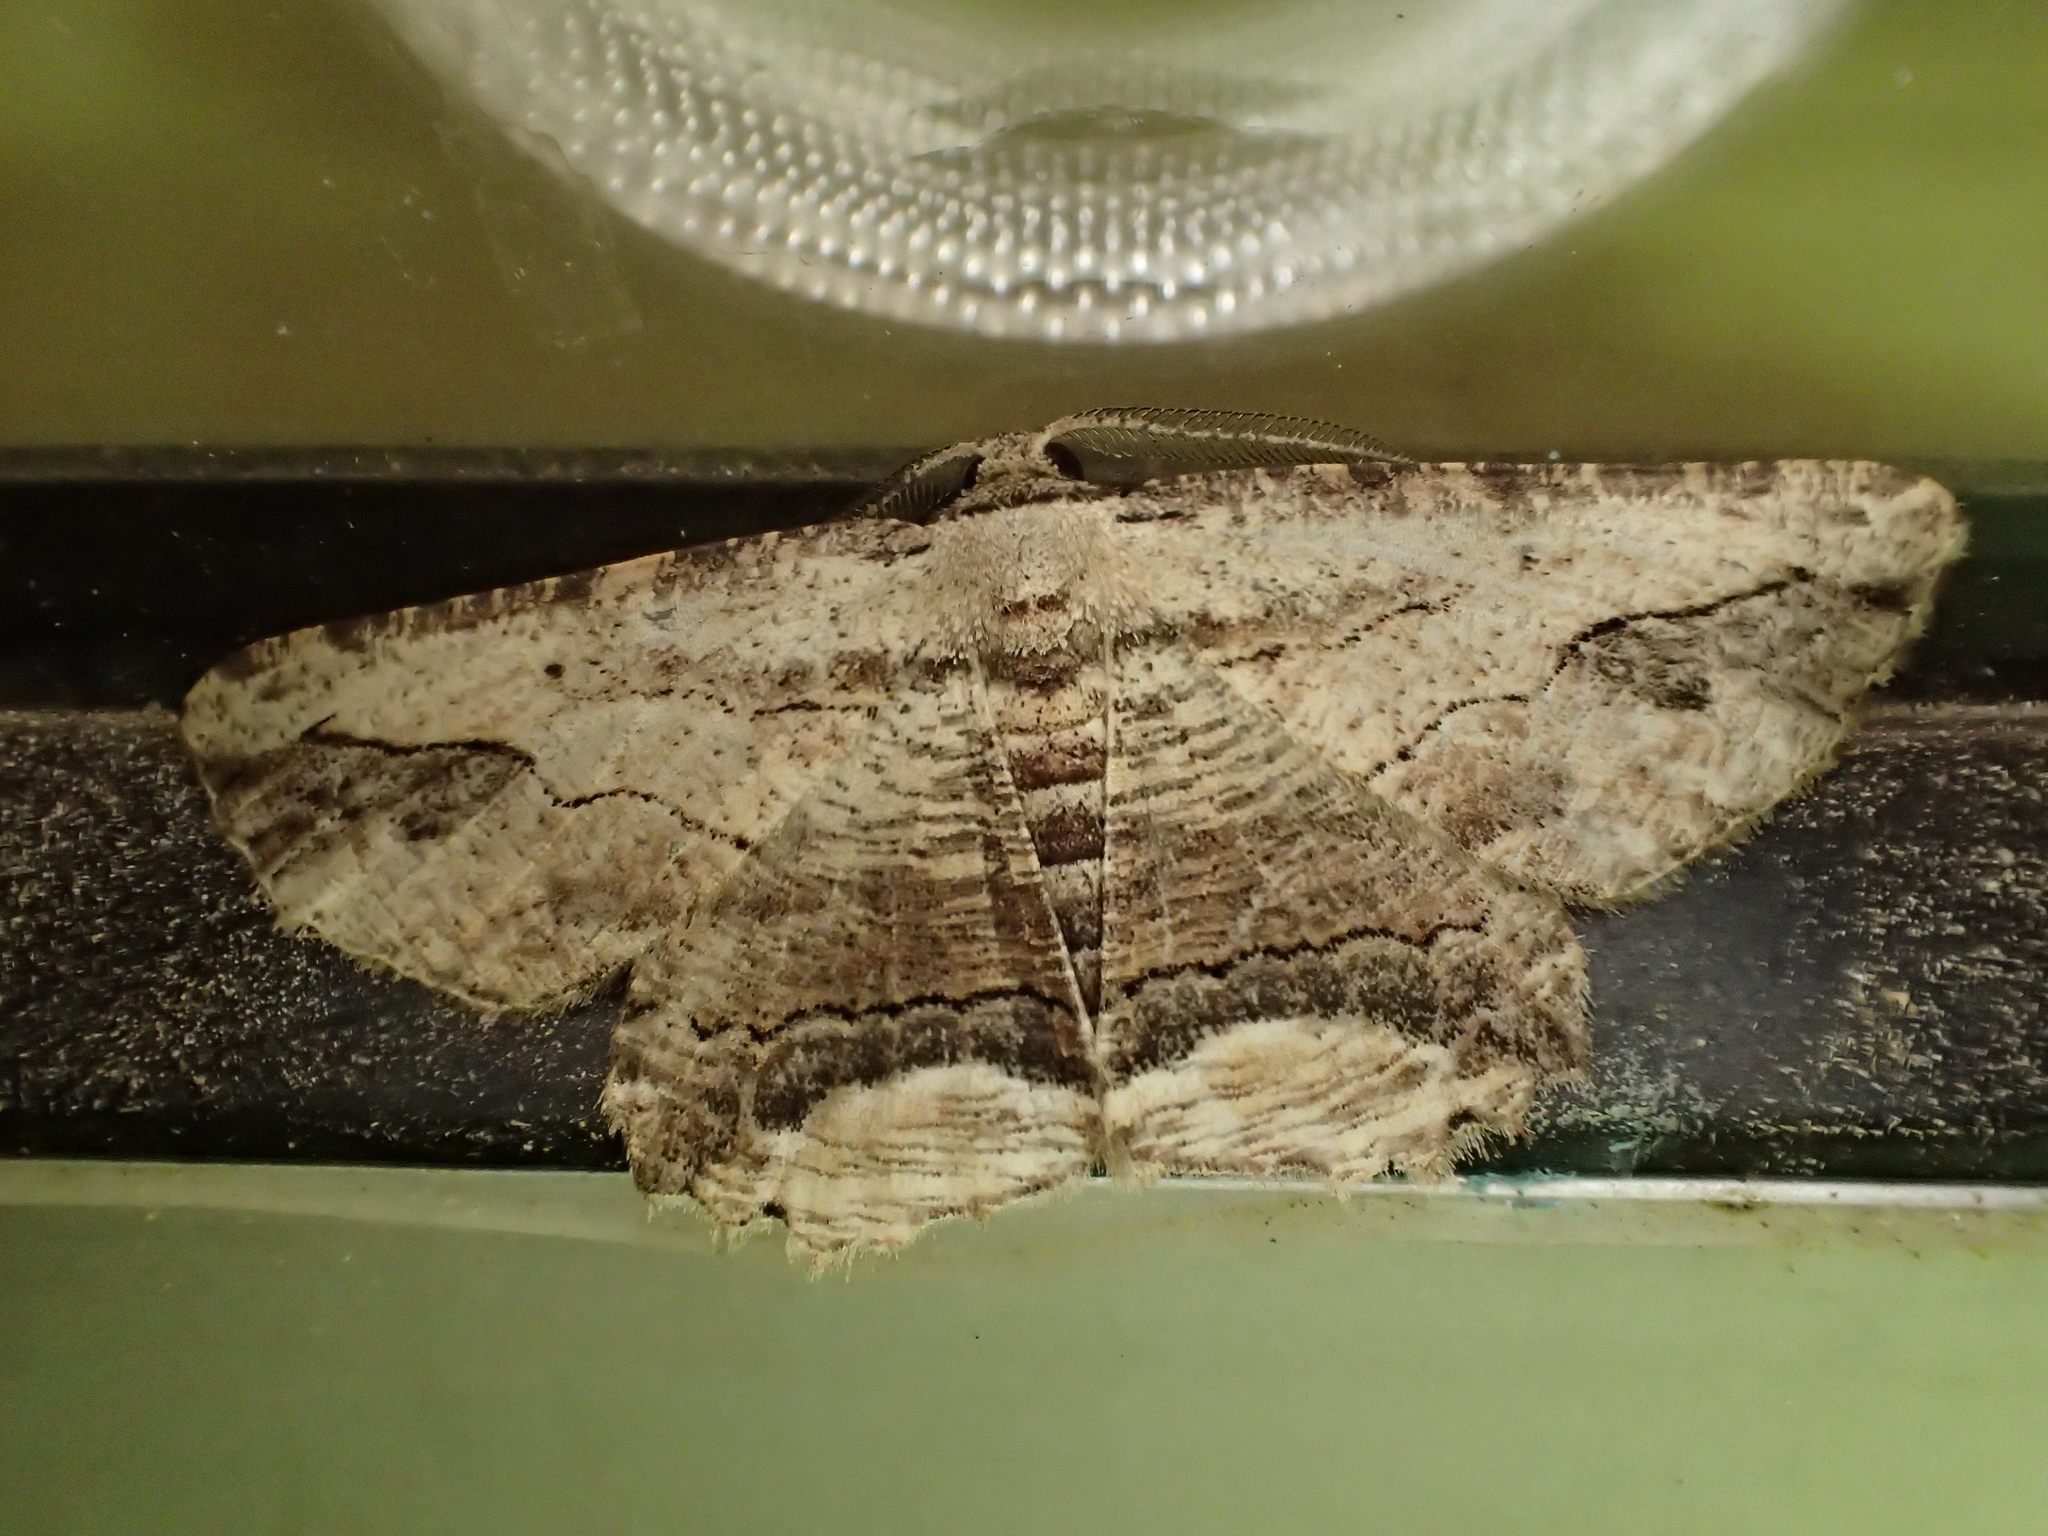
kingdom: Animalia
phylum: Arthropoda
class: Insecta
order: Lepidoptera
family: Geometridae
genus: Menophra
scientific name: Menophra abruptaria
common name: Waved umber
